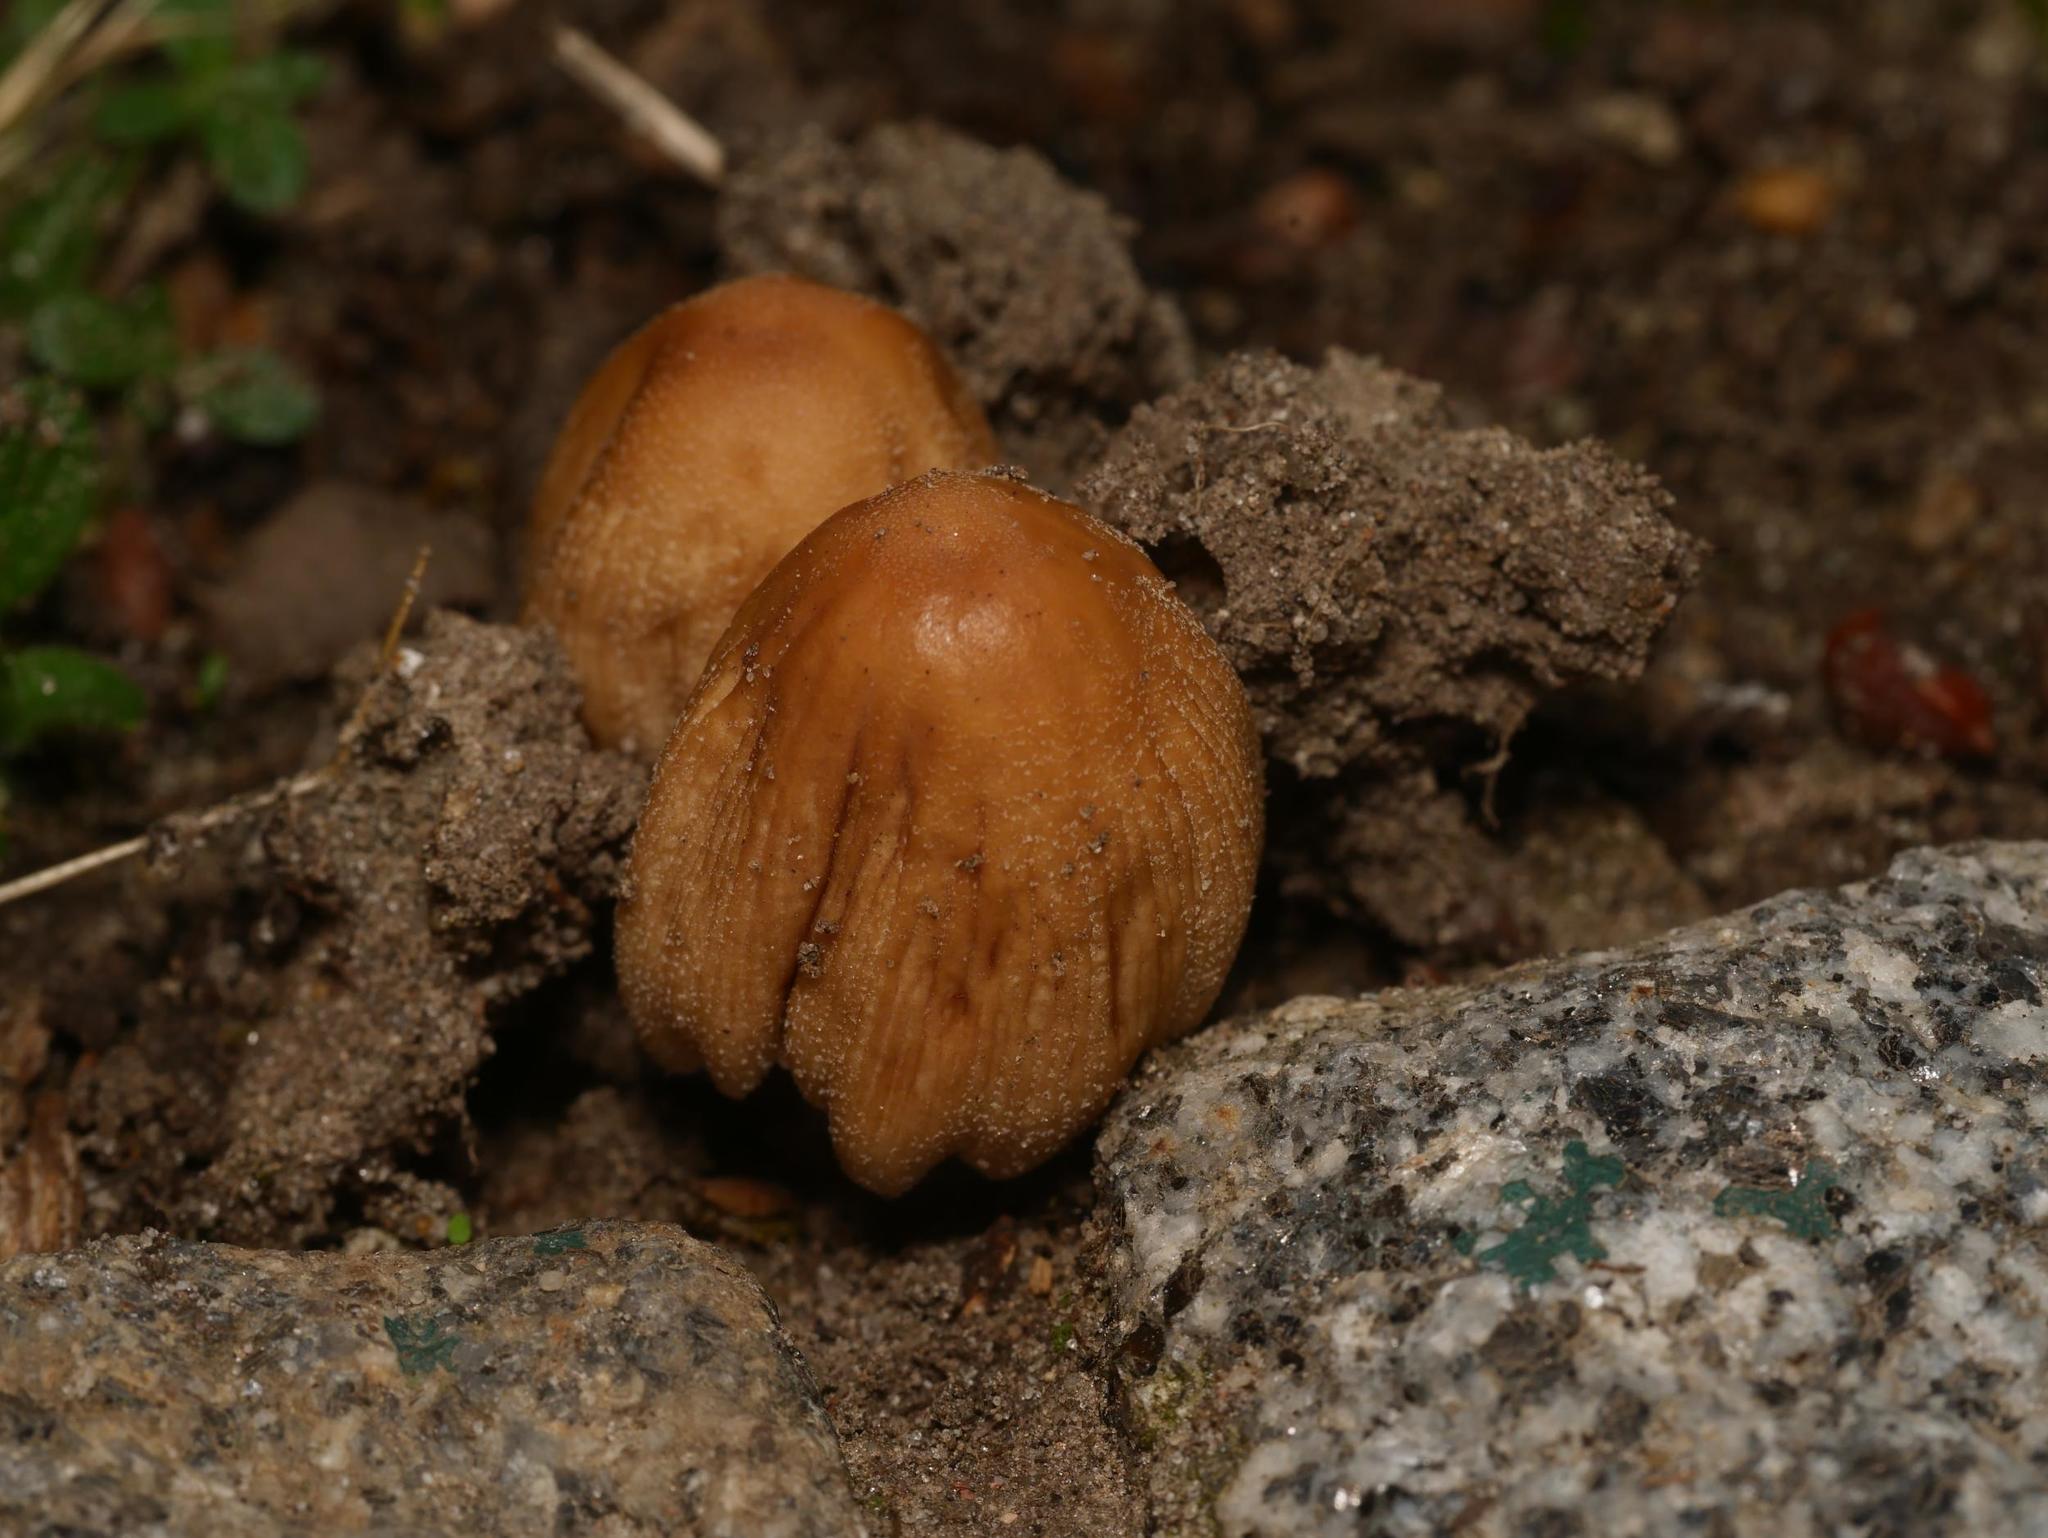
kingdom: Fungi
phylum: Basidiomycota
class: Agaricomycetes
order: Agaricales
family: Psathyrellaceae
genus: Coprinellus
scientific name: Coprinellus micaceus
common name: Glistening ink-cap
